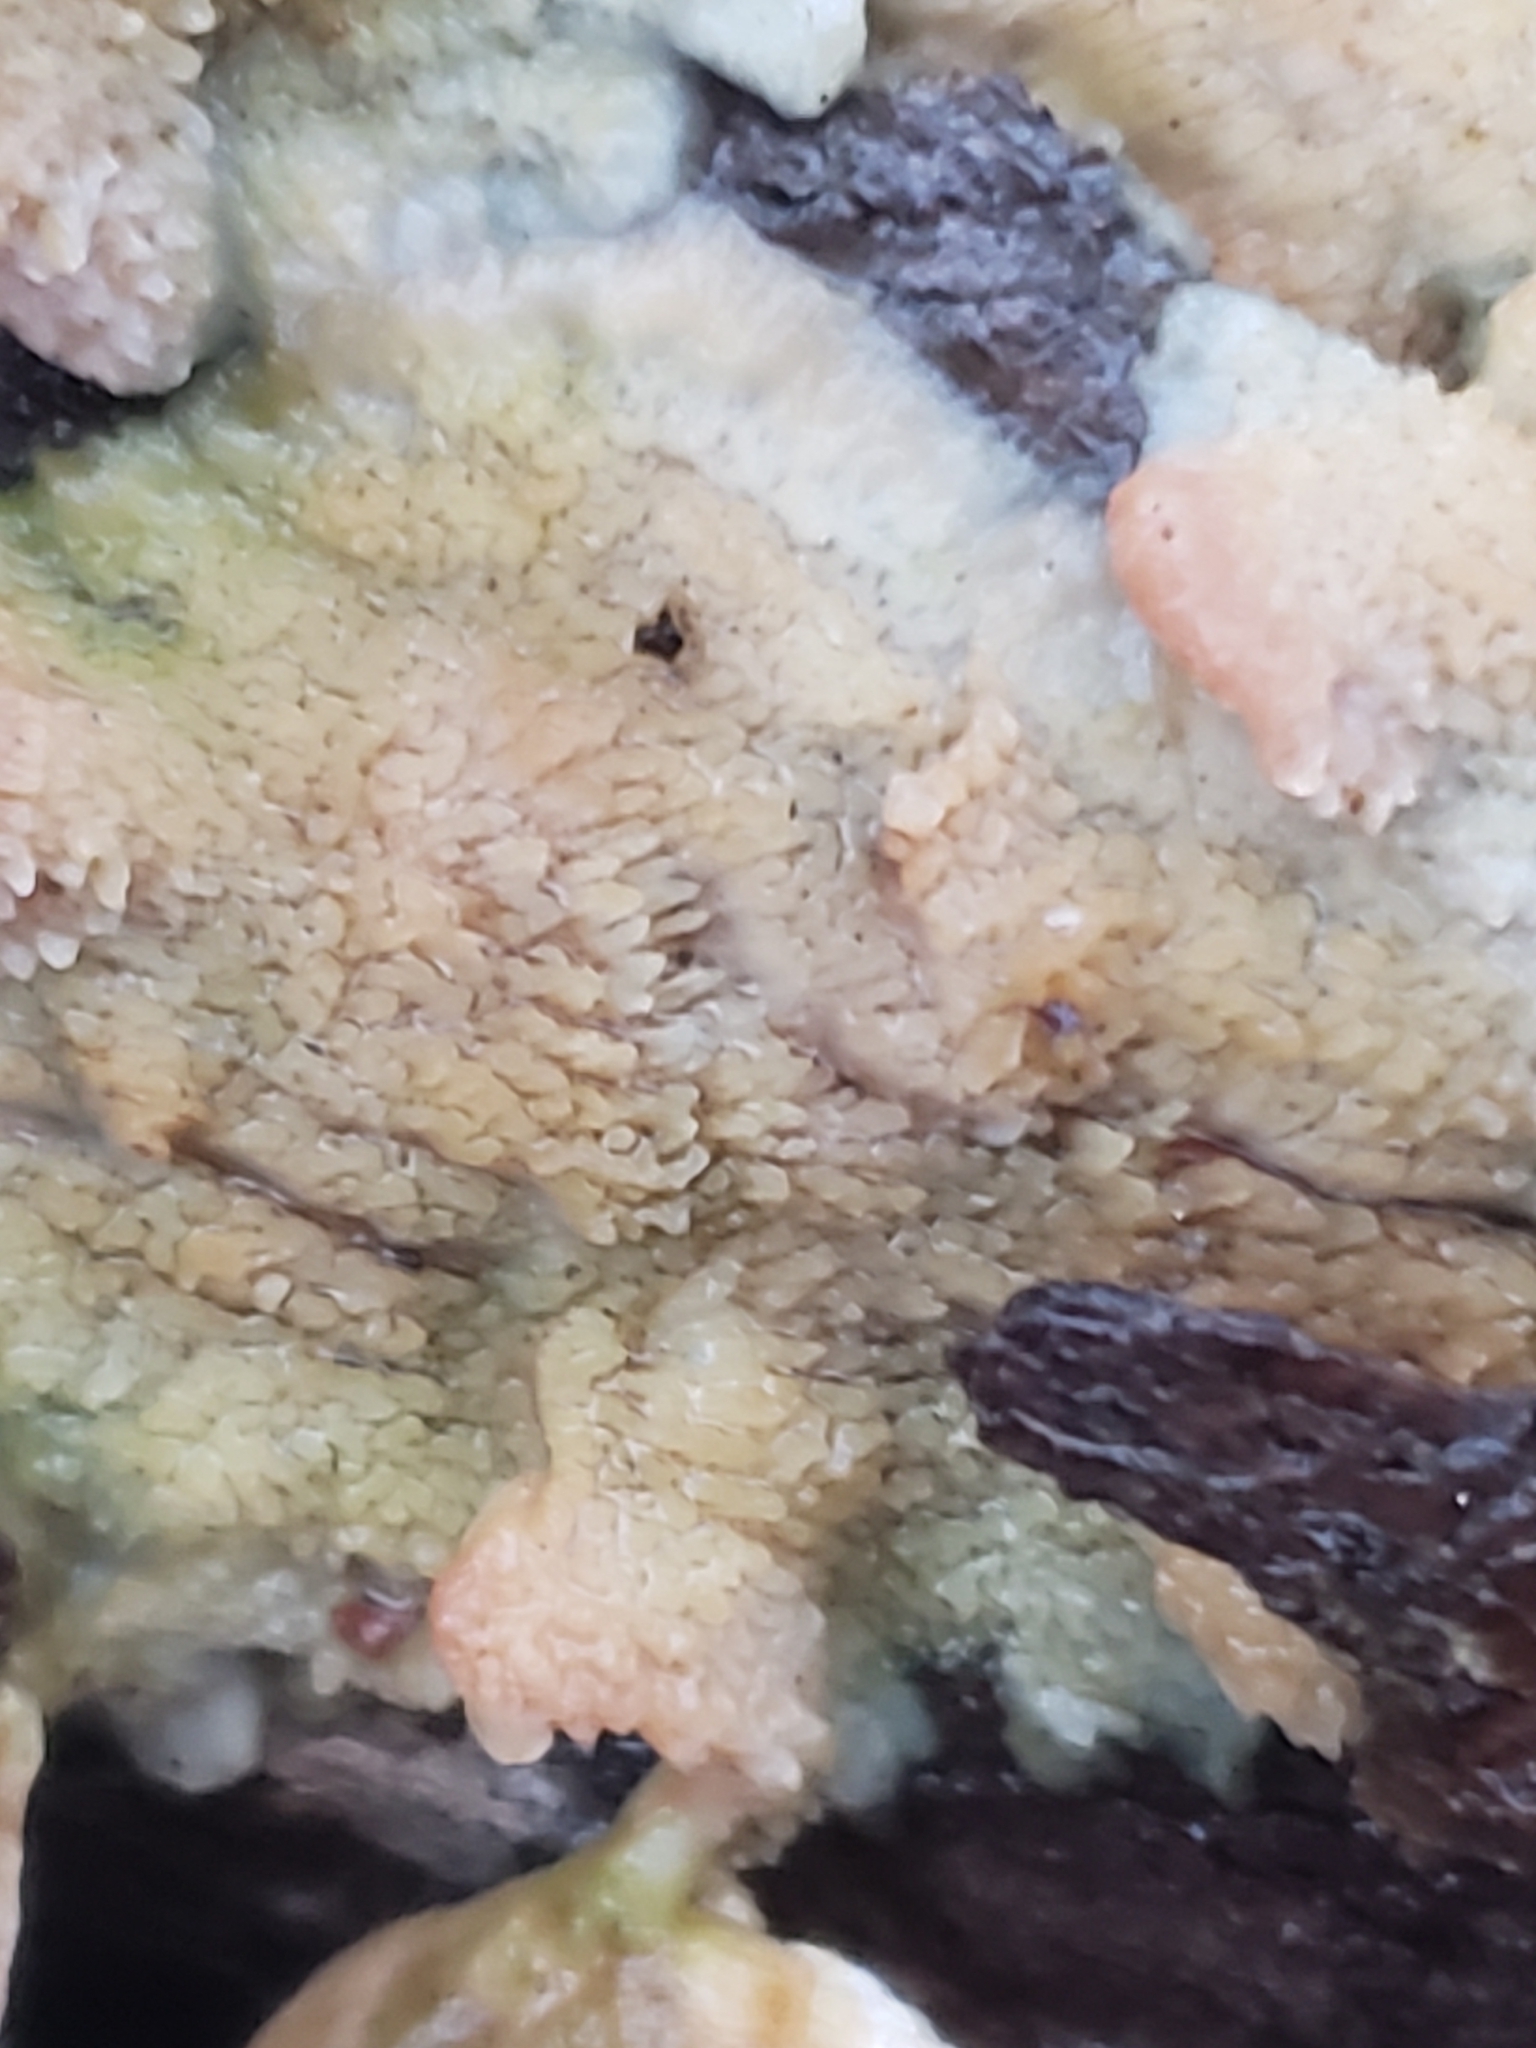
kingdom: Fungi
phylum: Basidiomycota
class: Agaricomycetes
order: Polyporales
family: Meruliaceae
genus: Phlebia
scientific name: Phlebia tremellosa
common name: Jelly rot
